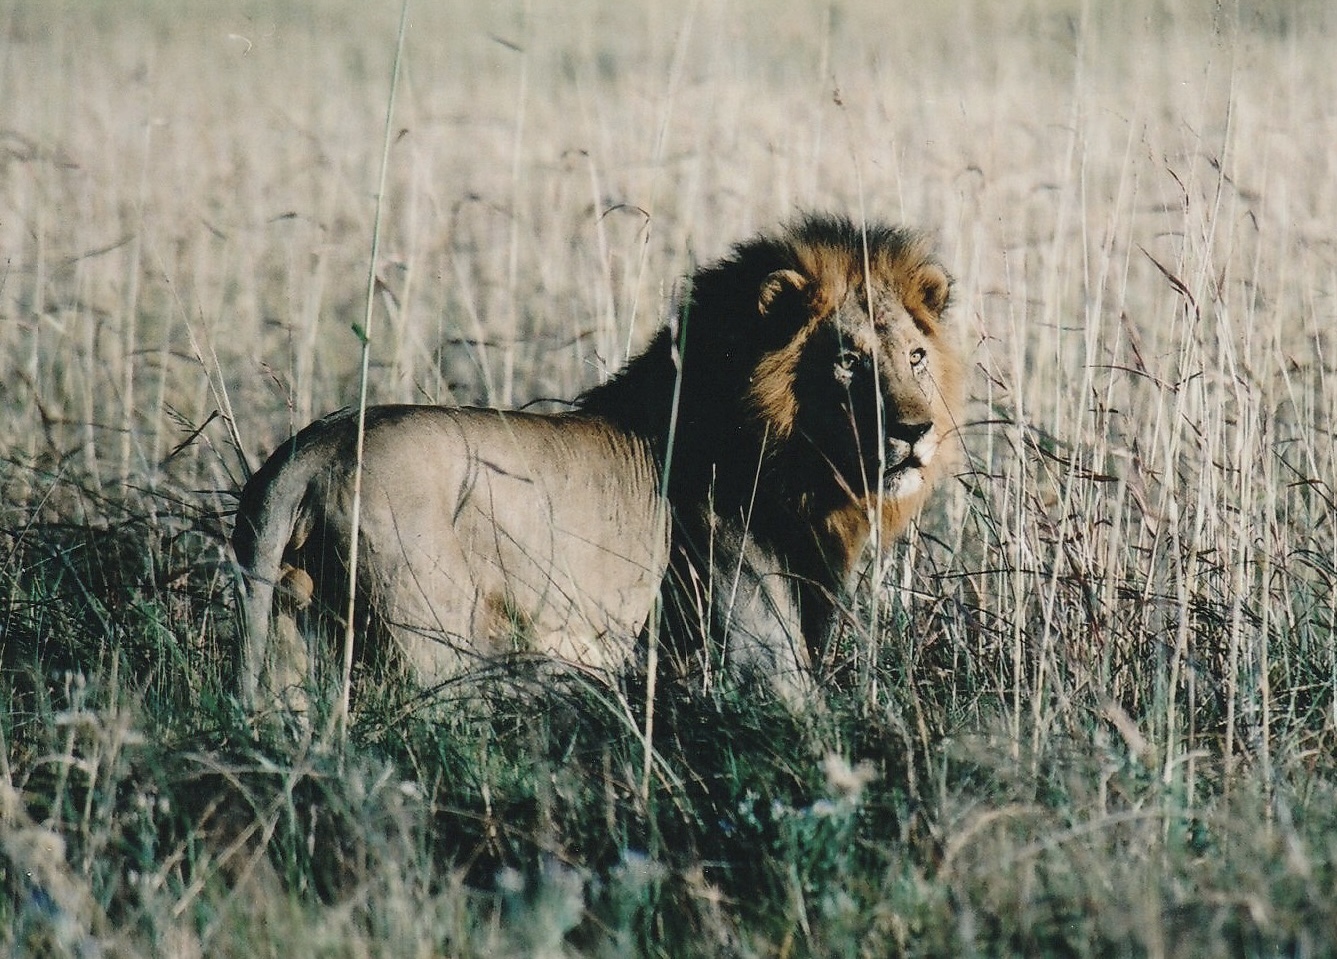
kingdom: Animalia
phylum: Chordata
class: Mammalia
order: Carnivora
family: Felidae
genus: Panthera
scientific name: Panthera leo
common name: Lion
